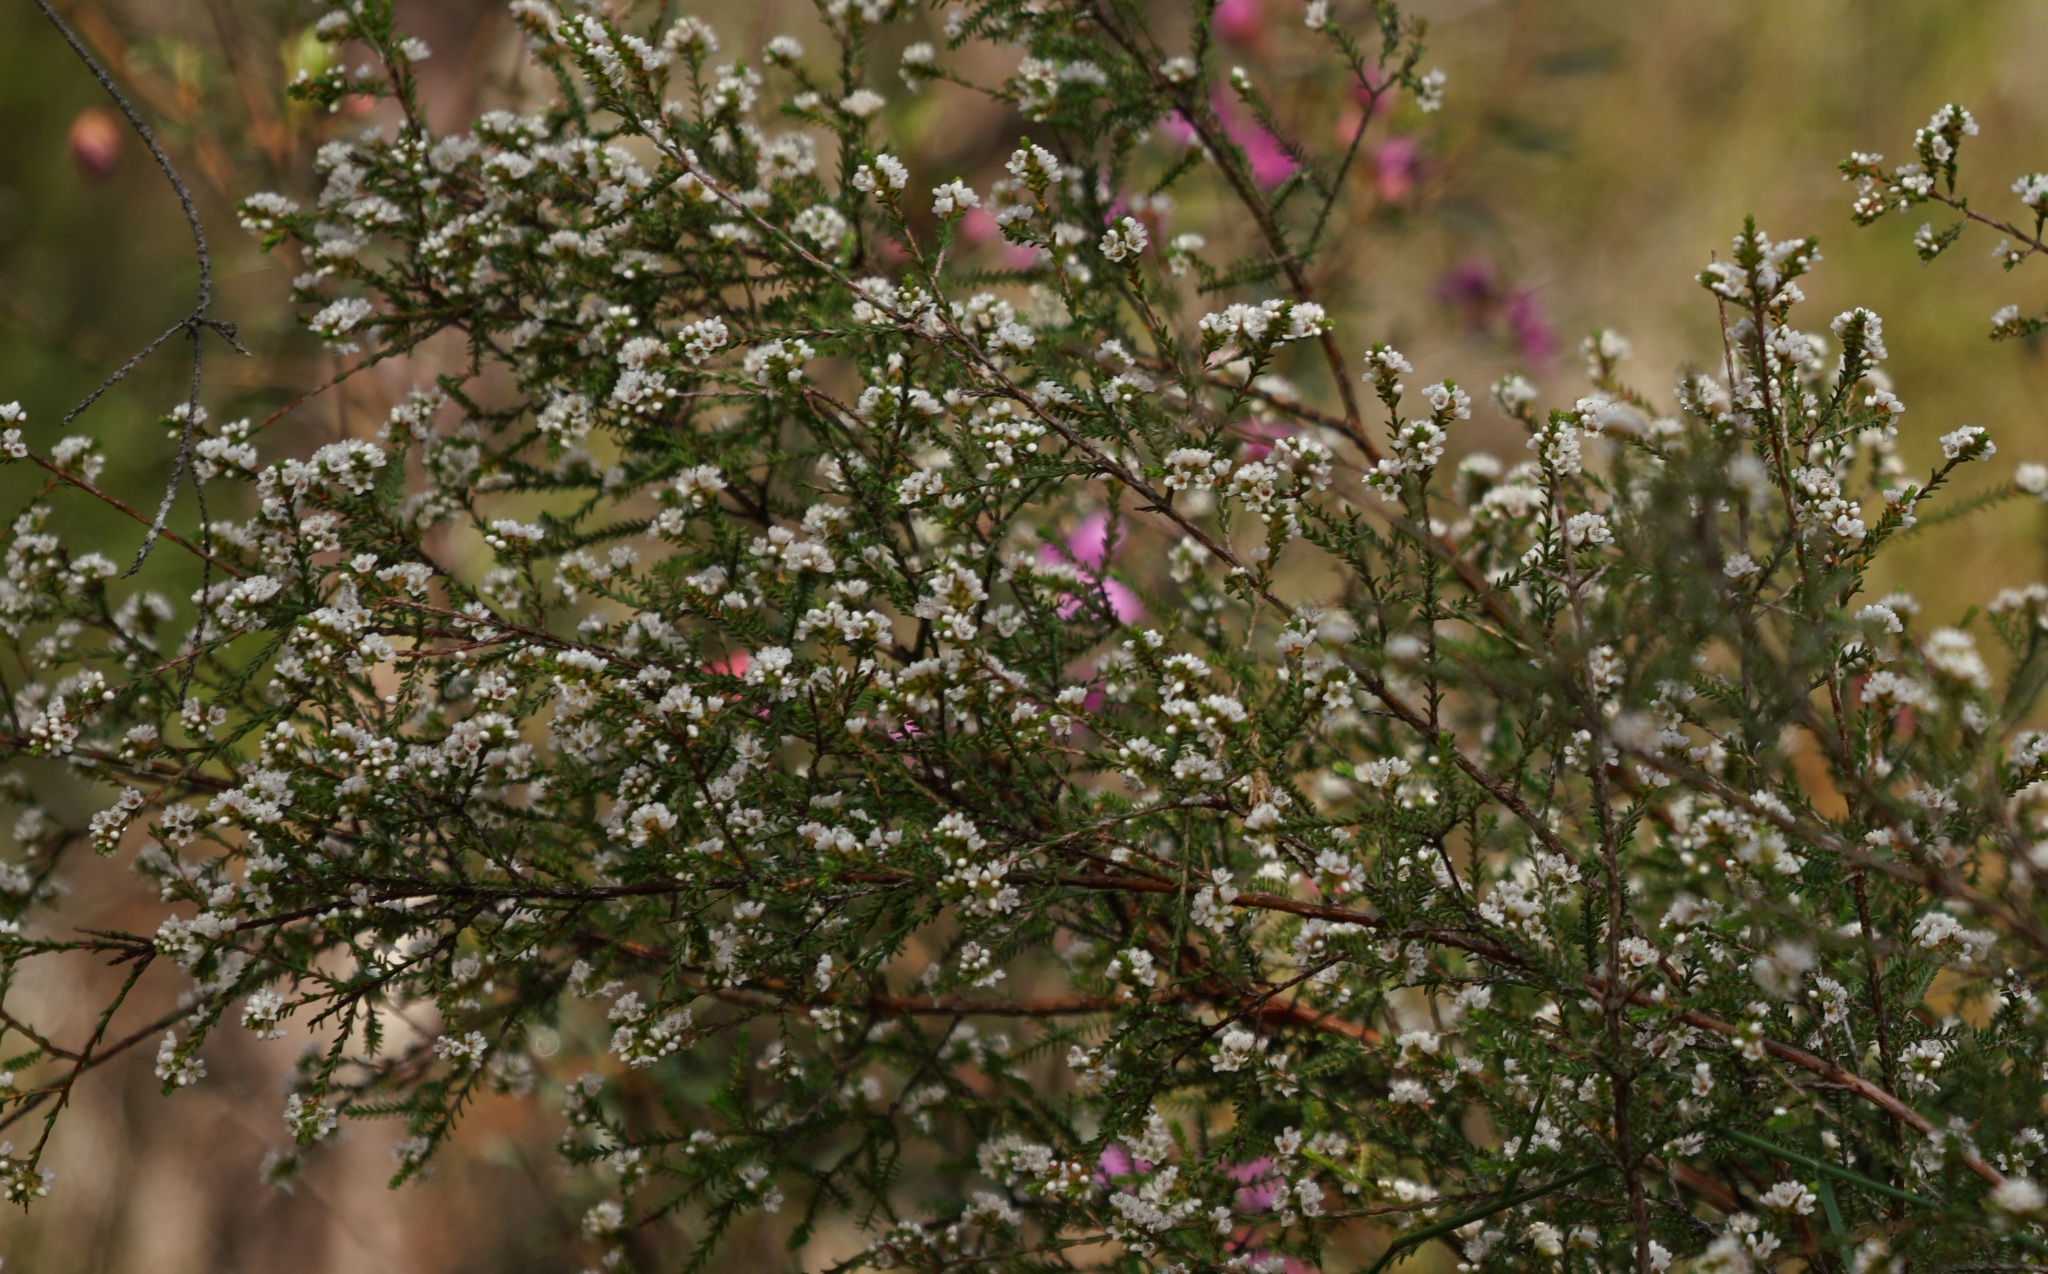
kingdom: Plantae
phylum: Tracheophyta
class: Magnoliopsida
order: Myrtales
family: Myrtaceae
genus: Micromyrtus
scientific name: Micromyrtus ciliata
